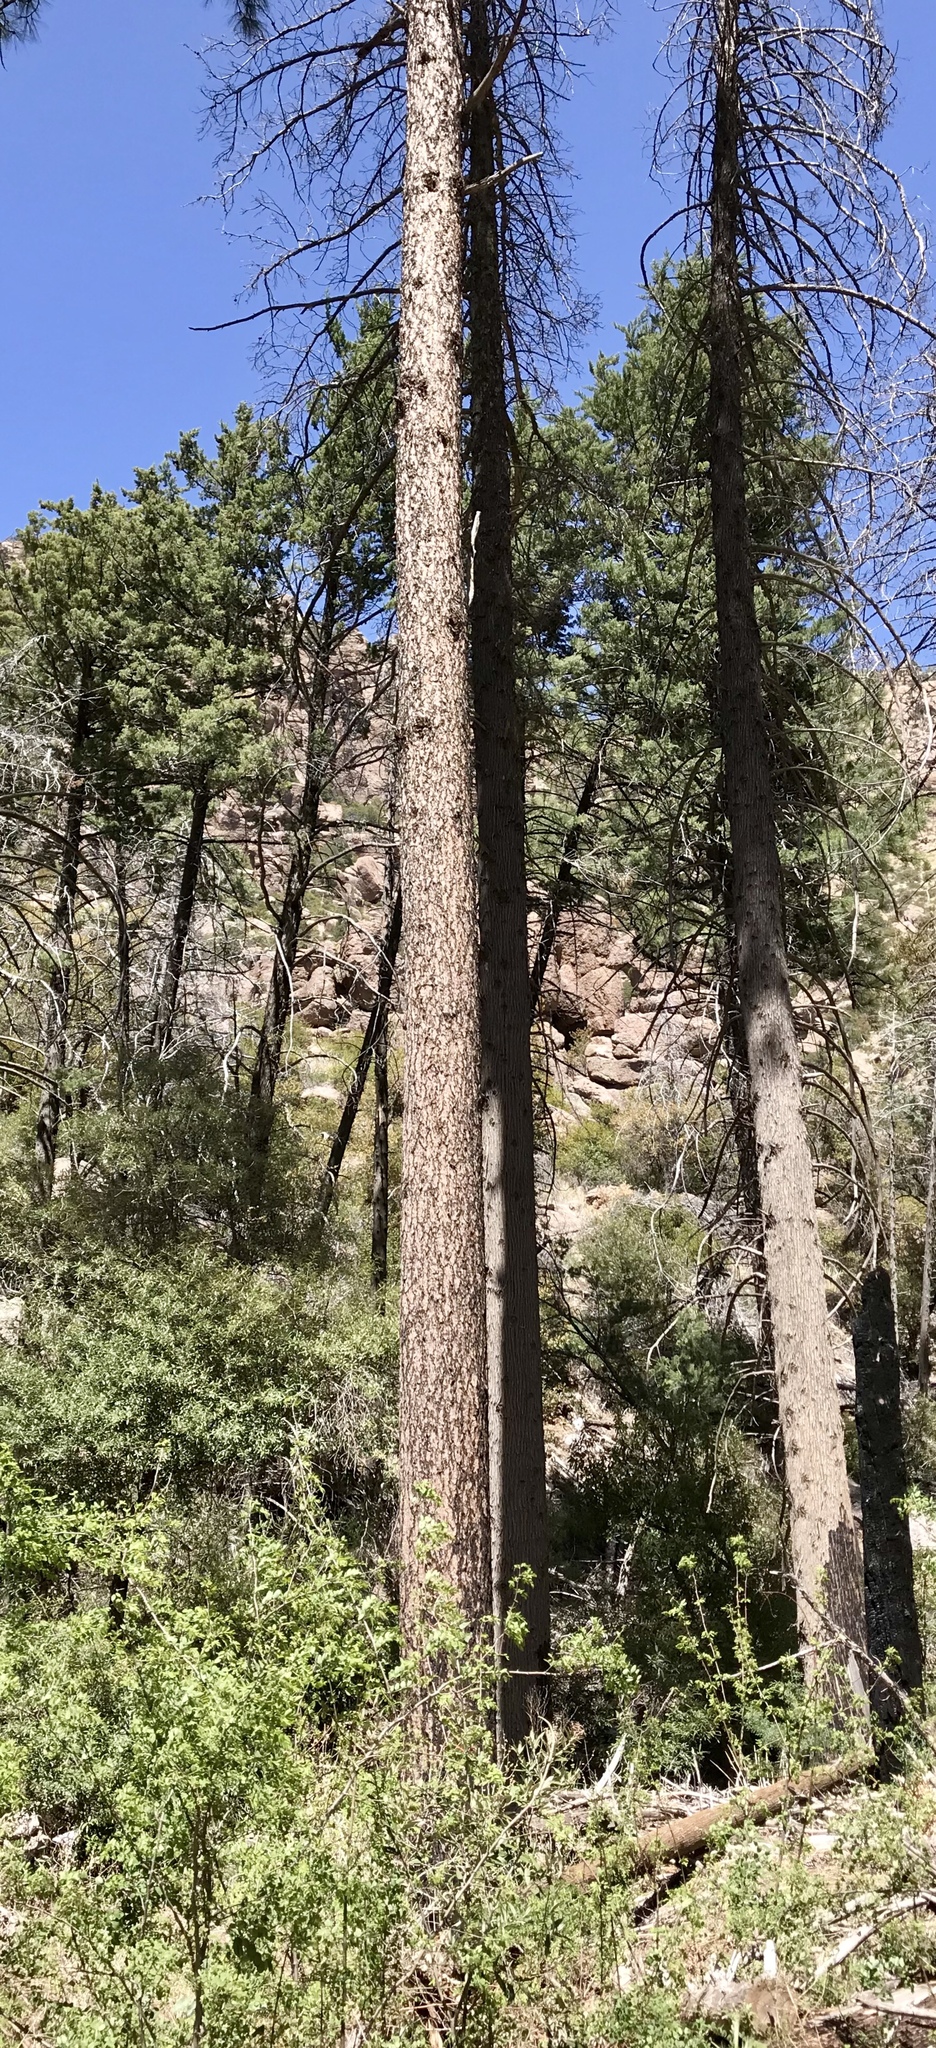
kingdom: Plantae
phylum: Tracheophyta
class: Pinopsida
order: Pinales
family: Pinaceae
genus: Pinus
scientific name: Pinus engelmannii
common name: Apache pine
